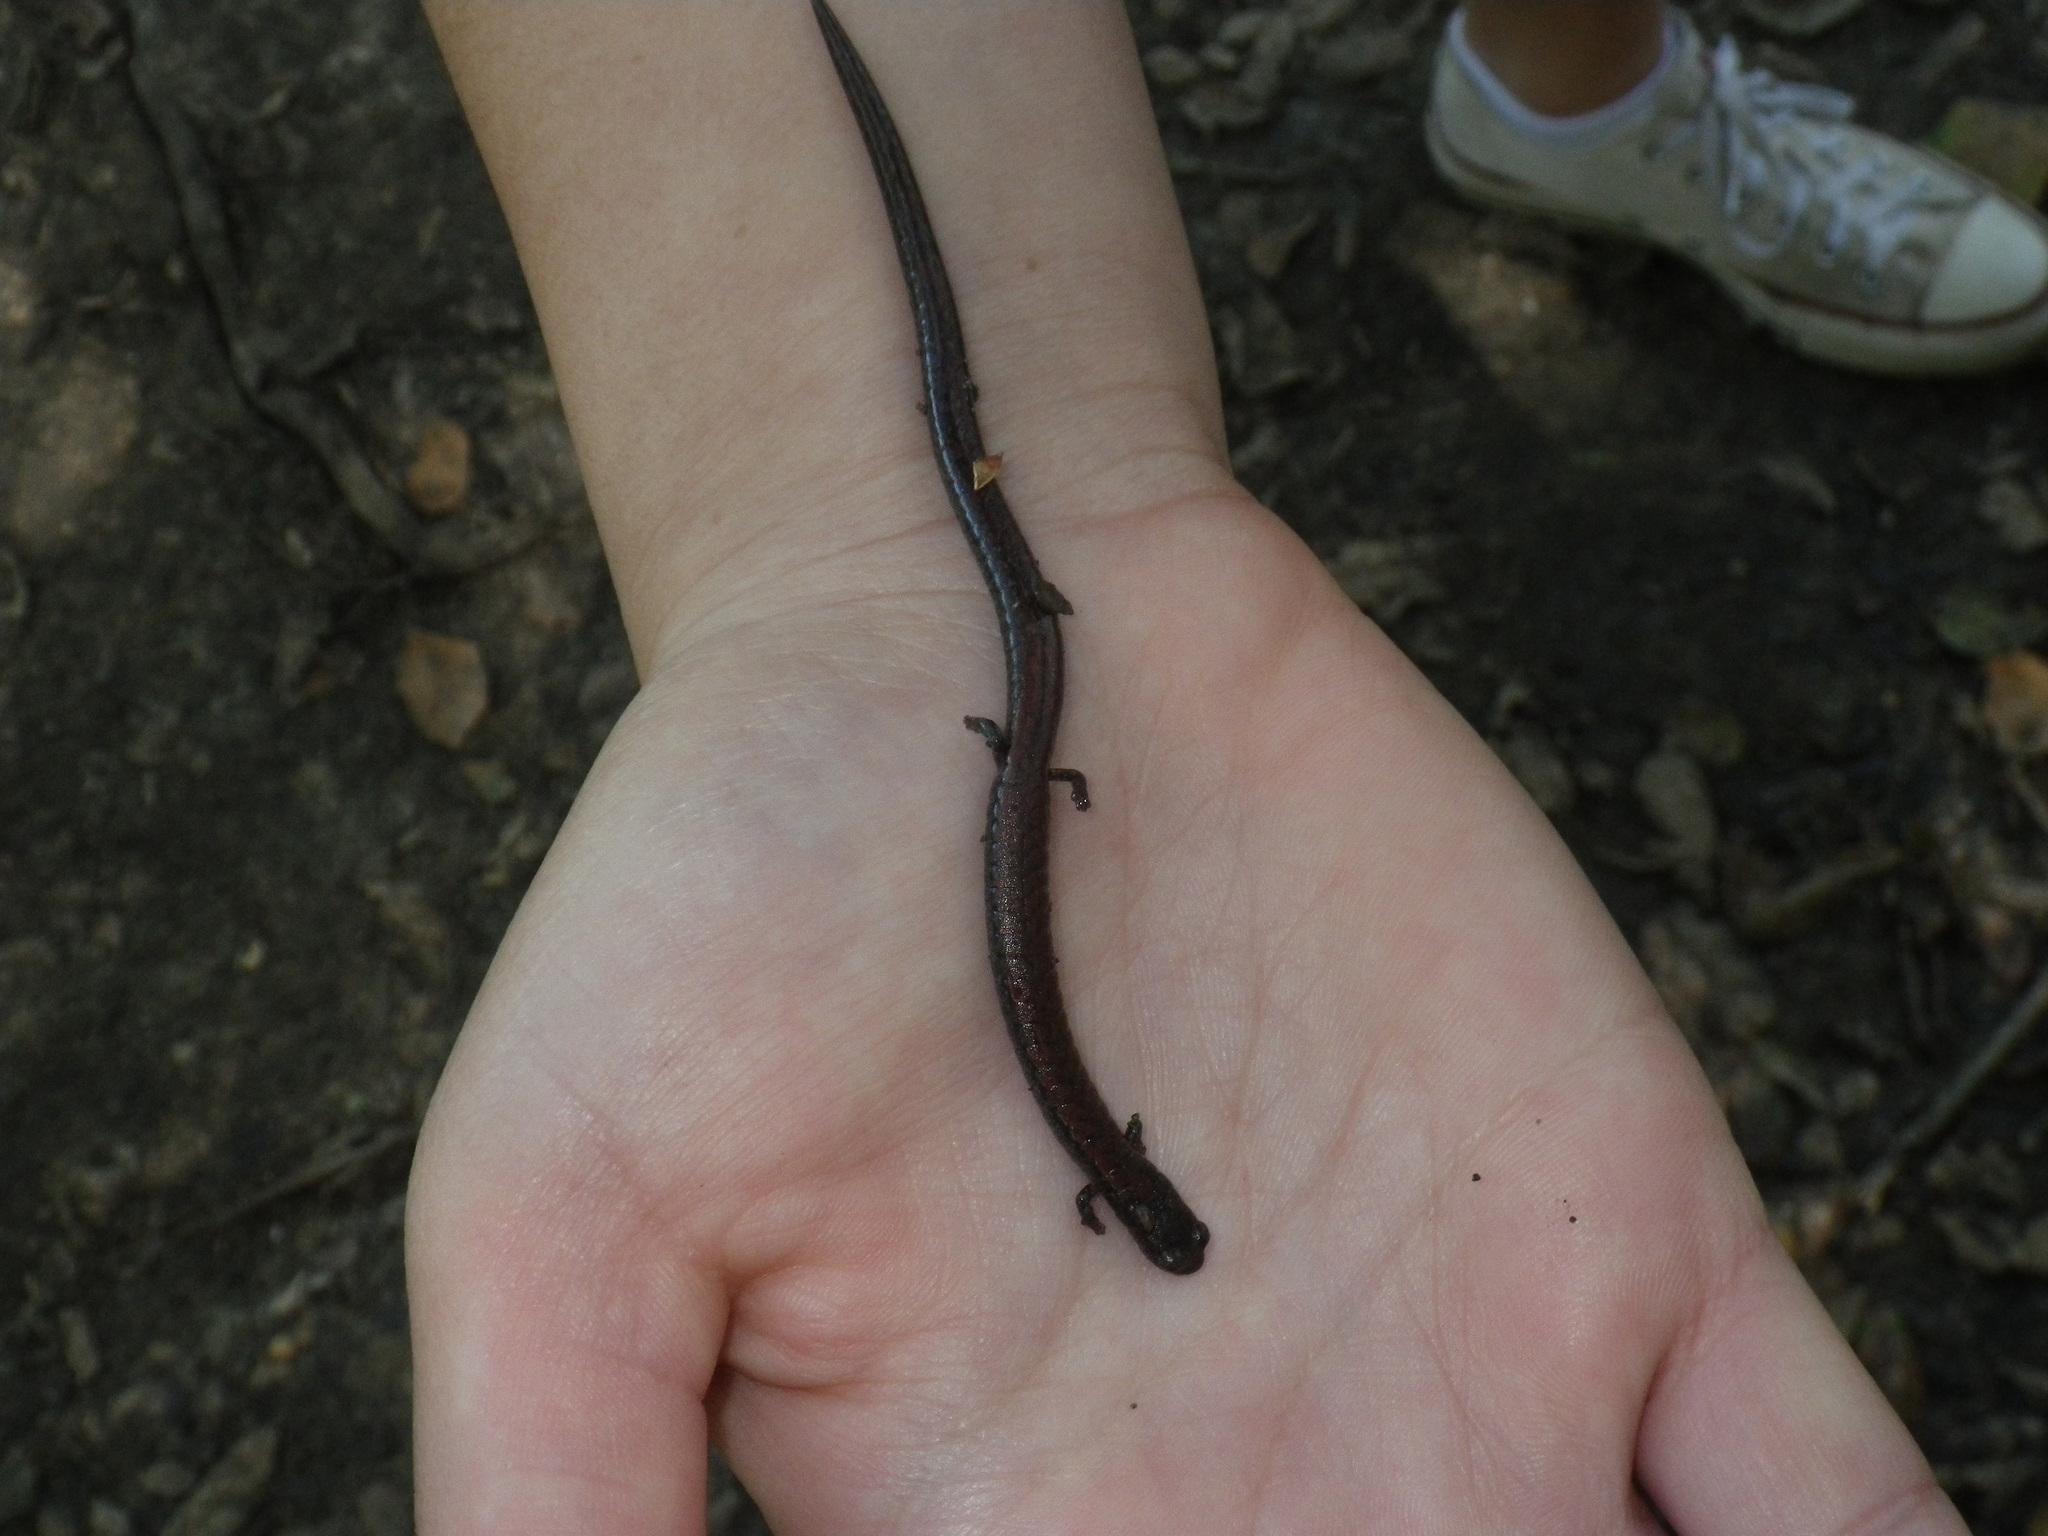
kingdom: Animalia
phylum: Chordata
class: Amphibia
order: Caudata
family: Plethodontidae
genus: Batrachoseps
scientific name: Batrachoseps attenuatus
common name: California slender salamander
